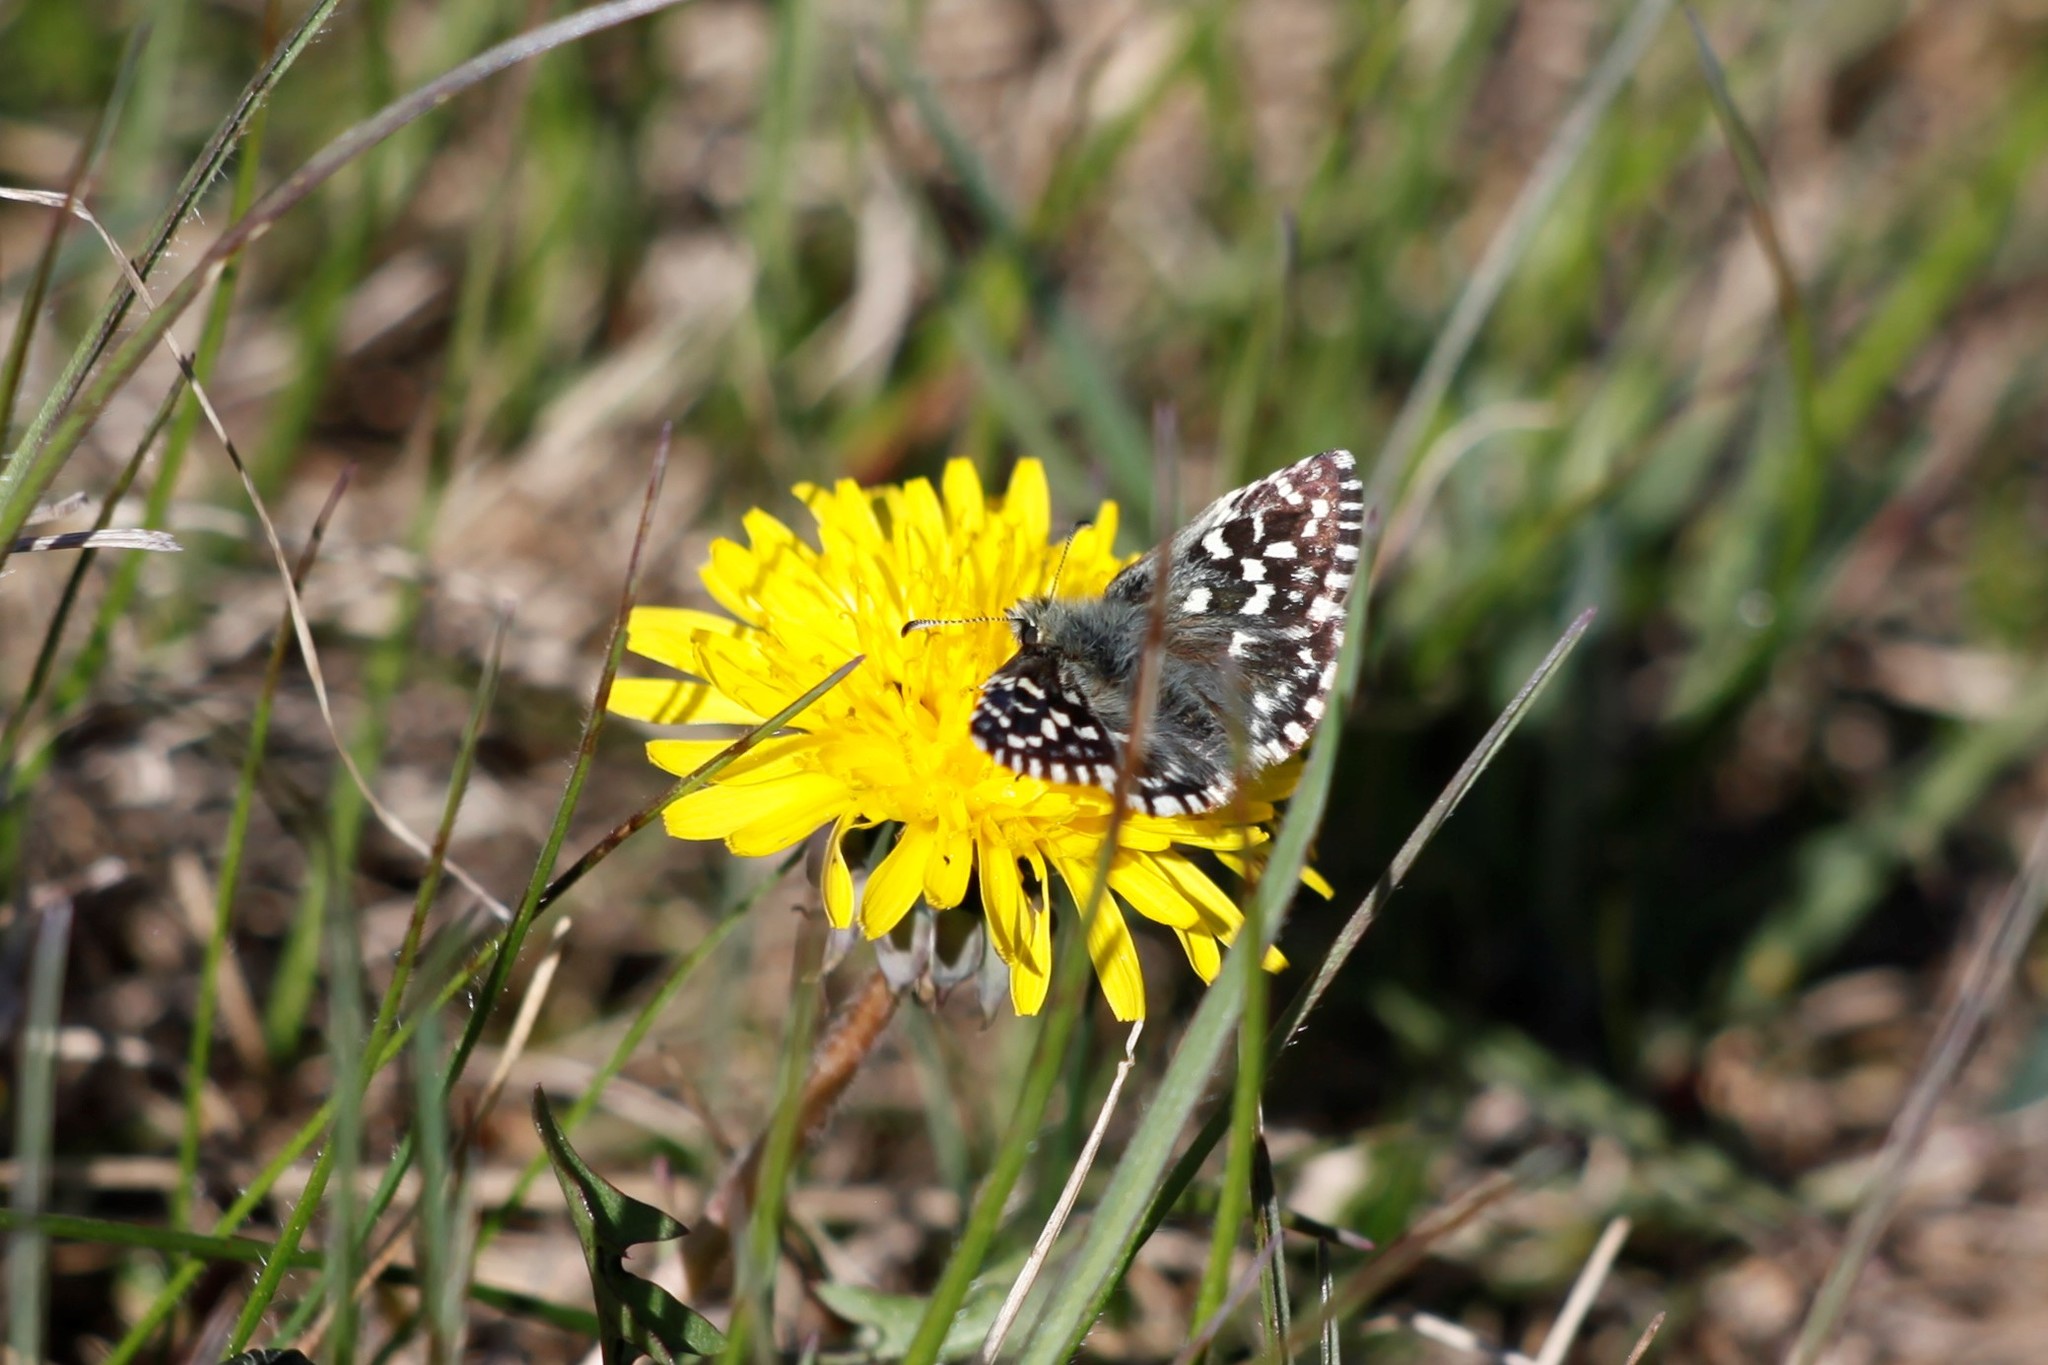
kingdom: Animalia
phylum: Arthropoda
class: Insecta
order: Lepidoptera
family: Hesperiidae
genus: Pyrgus
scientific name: Pyrgus malvae
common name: Grizzled skipper
